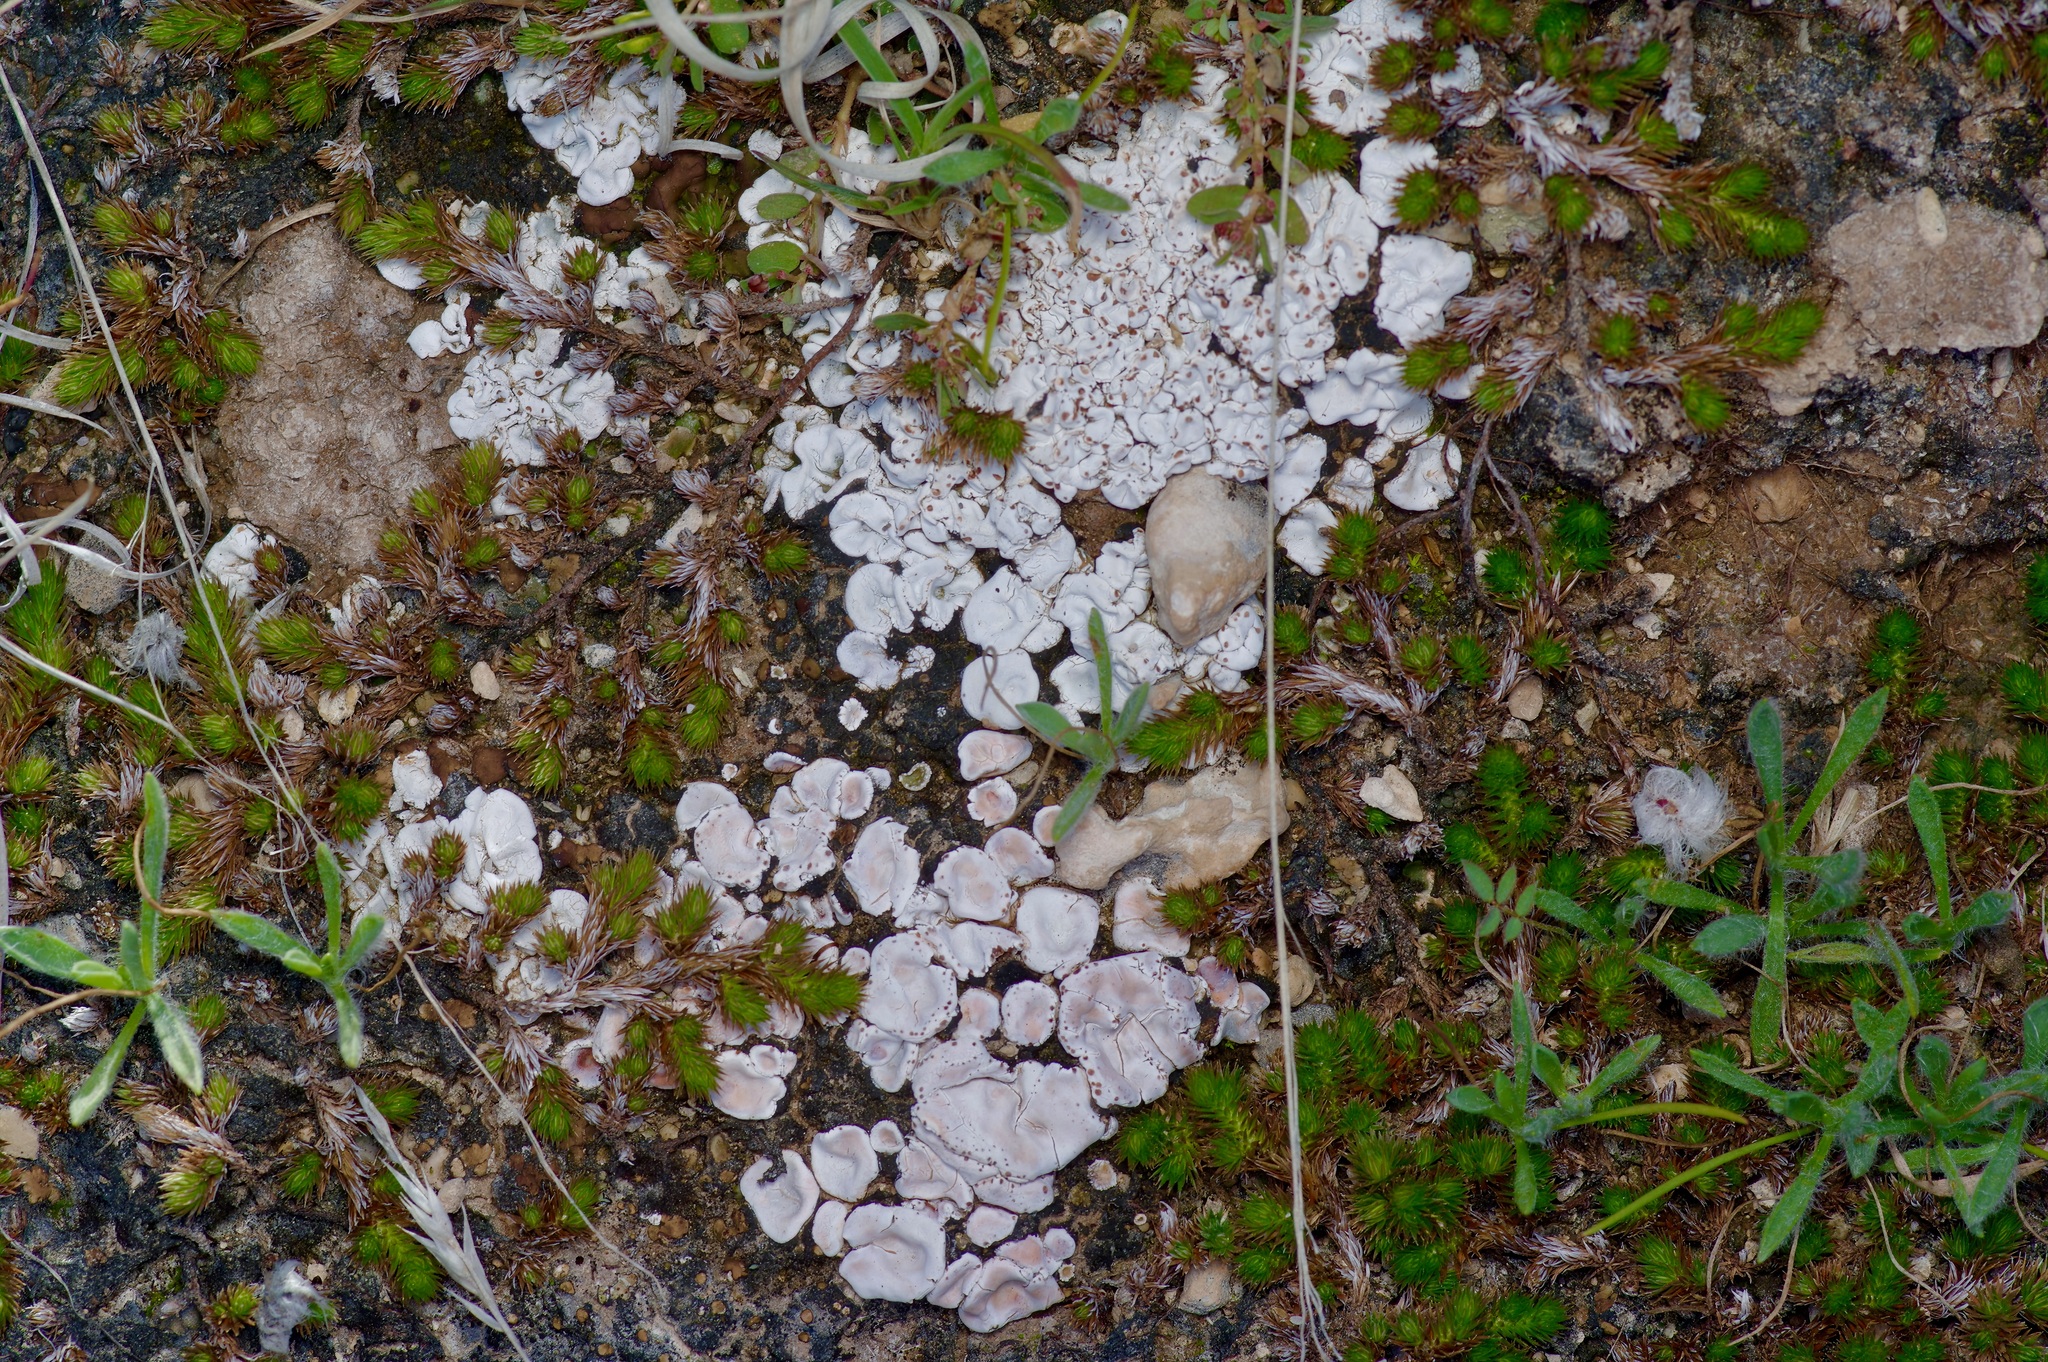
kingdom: Fungi
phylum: Ascomycota
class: Lecanoromycetes
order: Lecanorales
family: Psoraceae
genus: Psora
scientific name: Psora crenata
